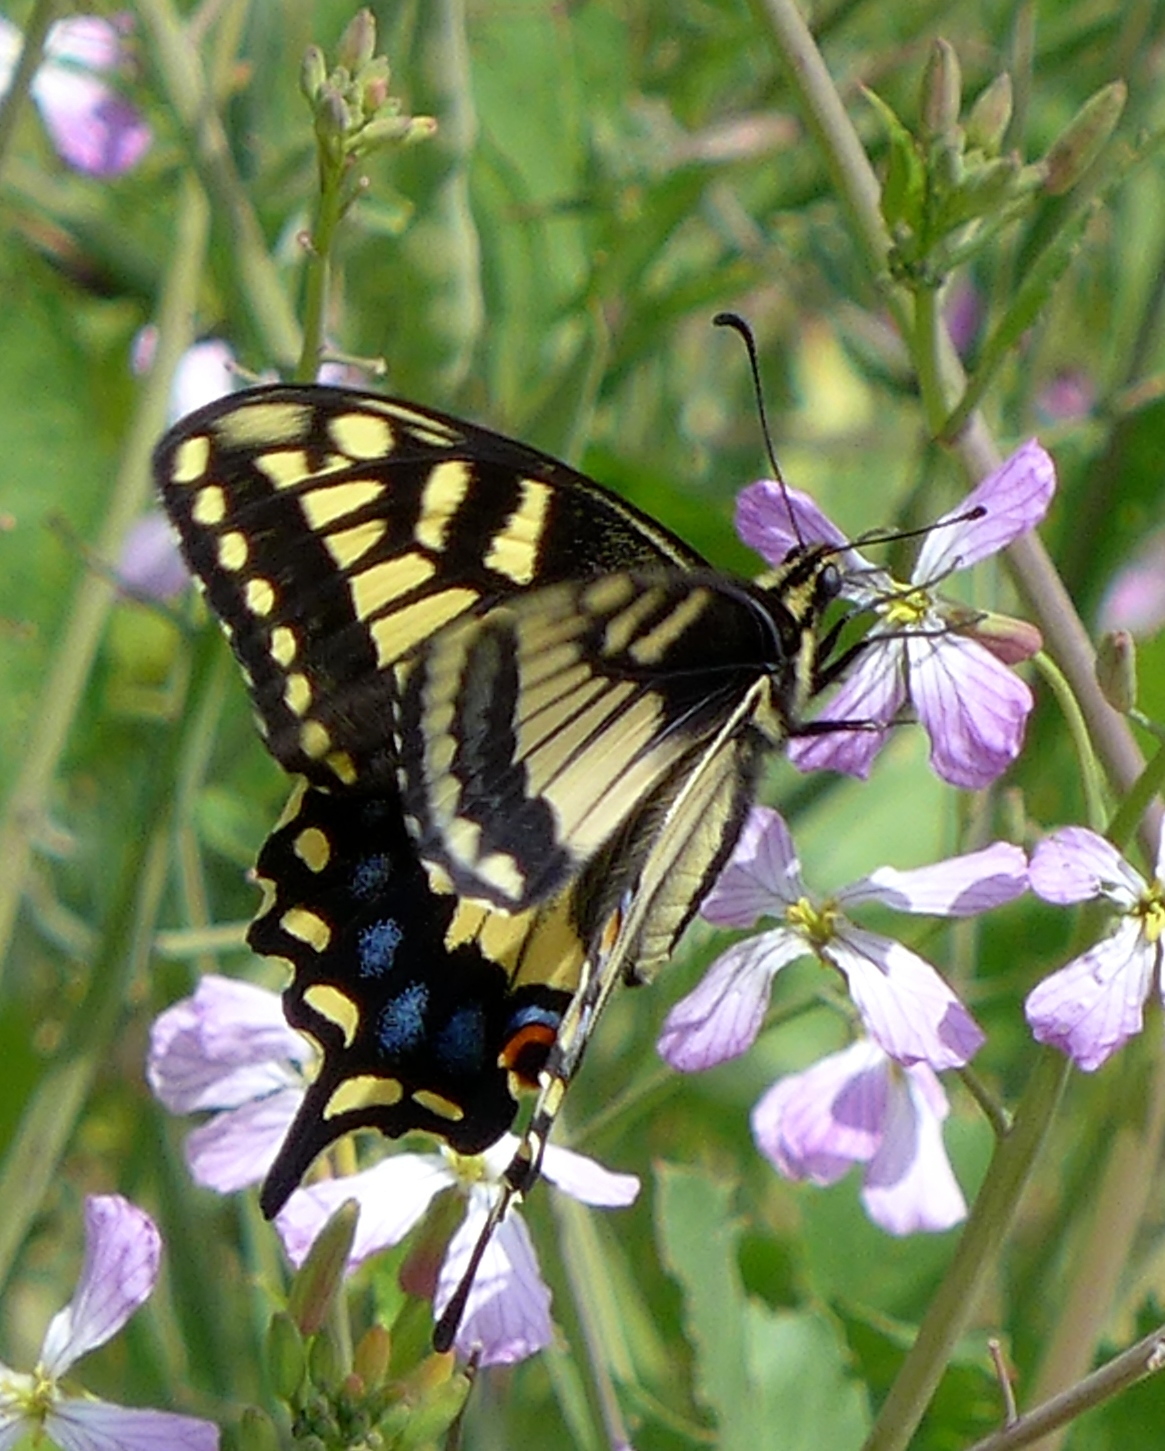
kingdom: Animalia
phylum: Arthropoda
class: Insecta
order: Lepidoptera
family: Papilionidae
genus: Papilio
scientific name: Papilio zelicaon
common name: Anise swallowtail
